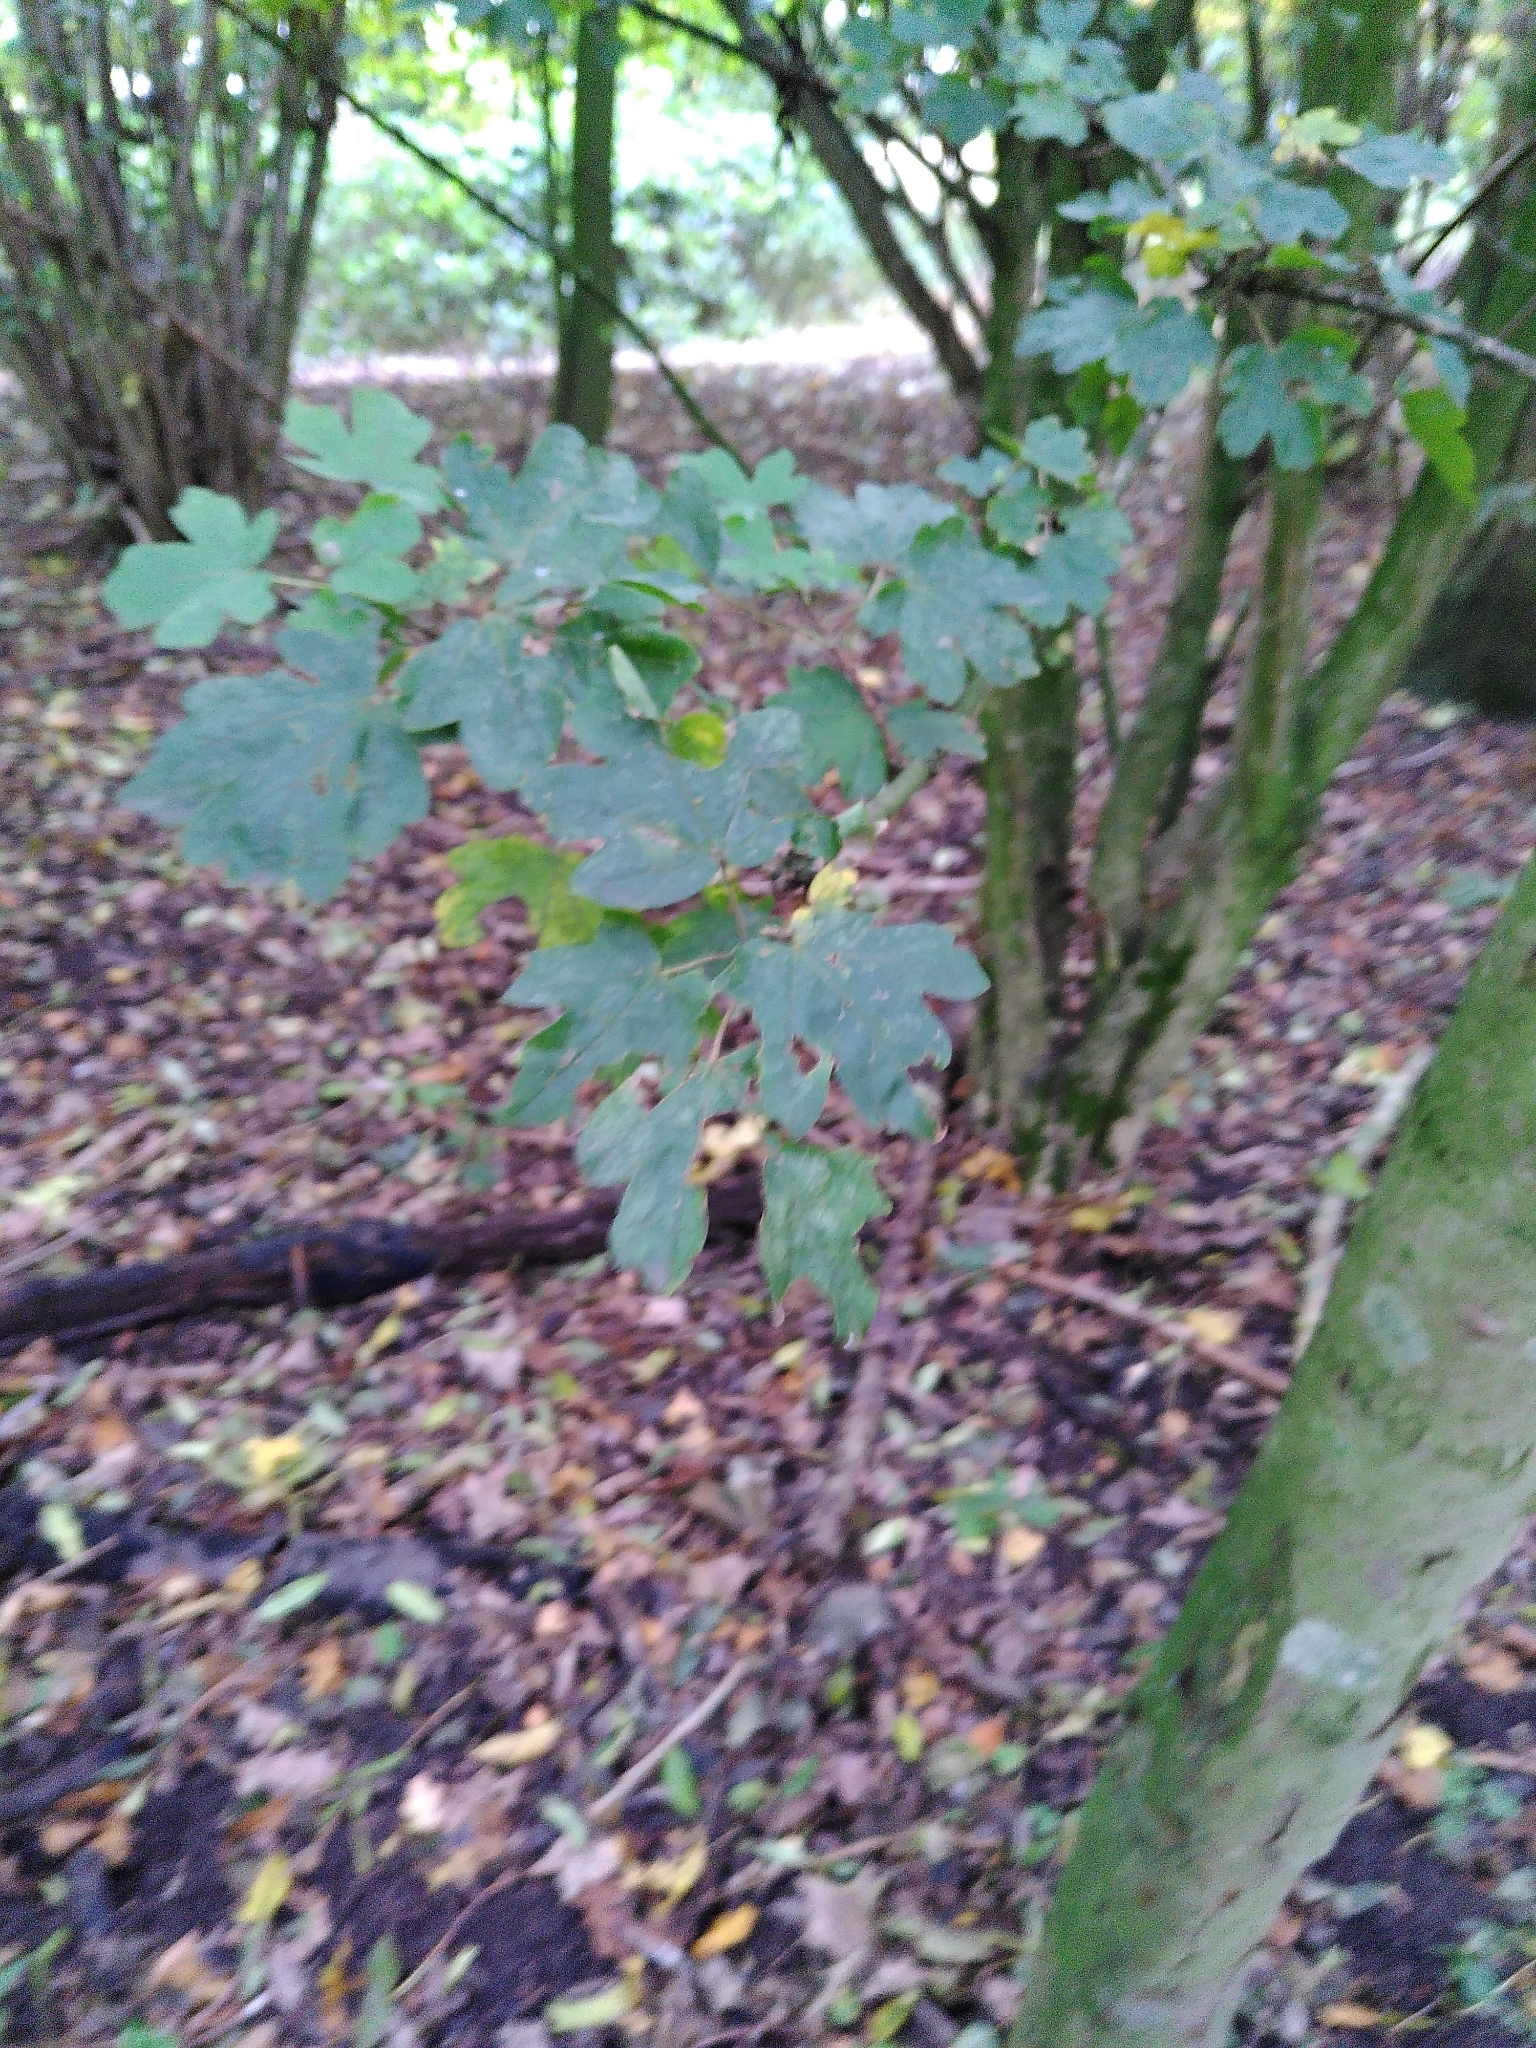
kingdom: Plantae
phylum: Tracheophyta
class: Magnoliopsida
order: Sapindales
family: Sapindaceae
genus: Acer
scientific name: Acer campestre
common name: Field maple
